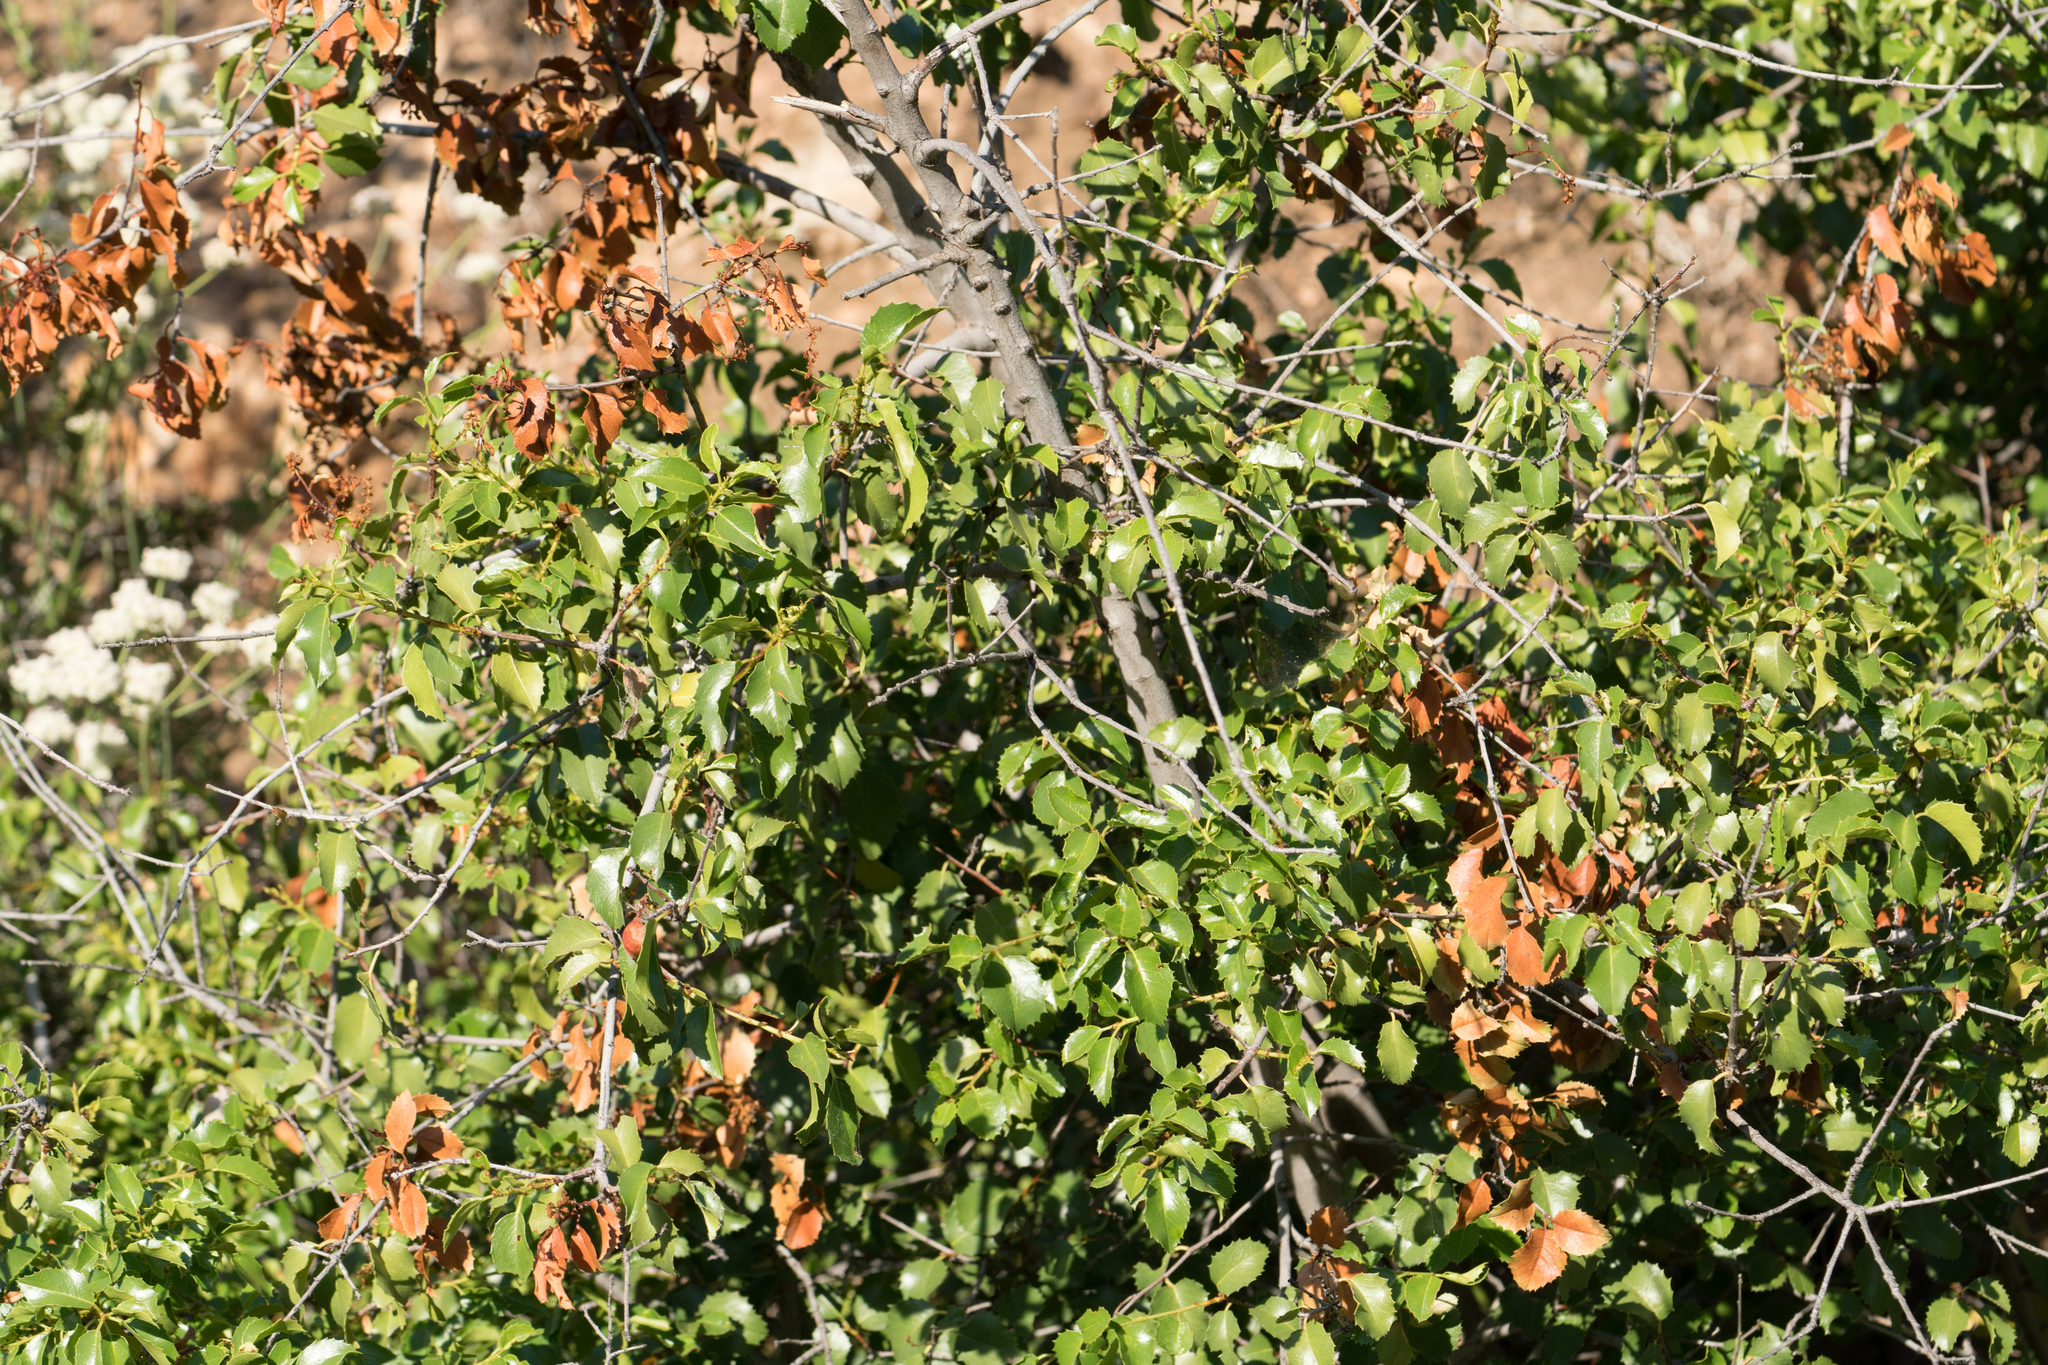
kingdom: Plantae
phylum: Tracheophyta
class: Magnoliopsida
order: Rosales
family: Rosaceae
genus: Prunus
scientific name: Prunus ilicifolia
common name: Hollyleaf cherry
